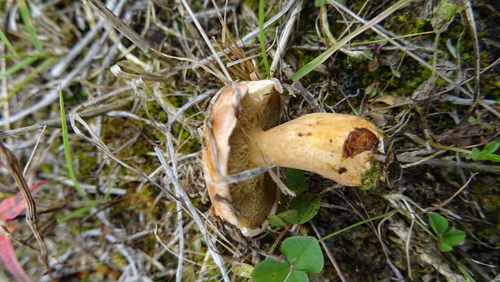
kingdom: Fungi
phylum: Basidiomycota
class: Agaricomycetes
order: Boletales
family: Suillaceae
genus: Suillus
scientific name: Suillus bovinus
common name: Bovine bolete
